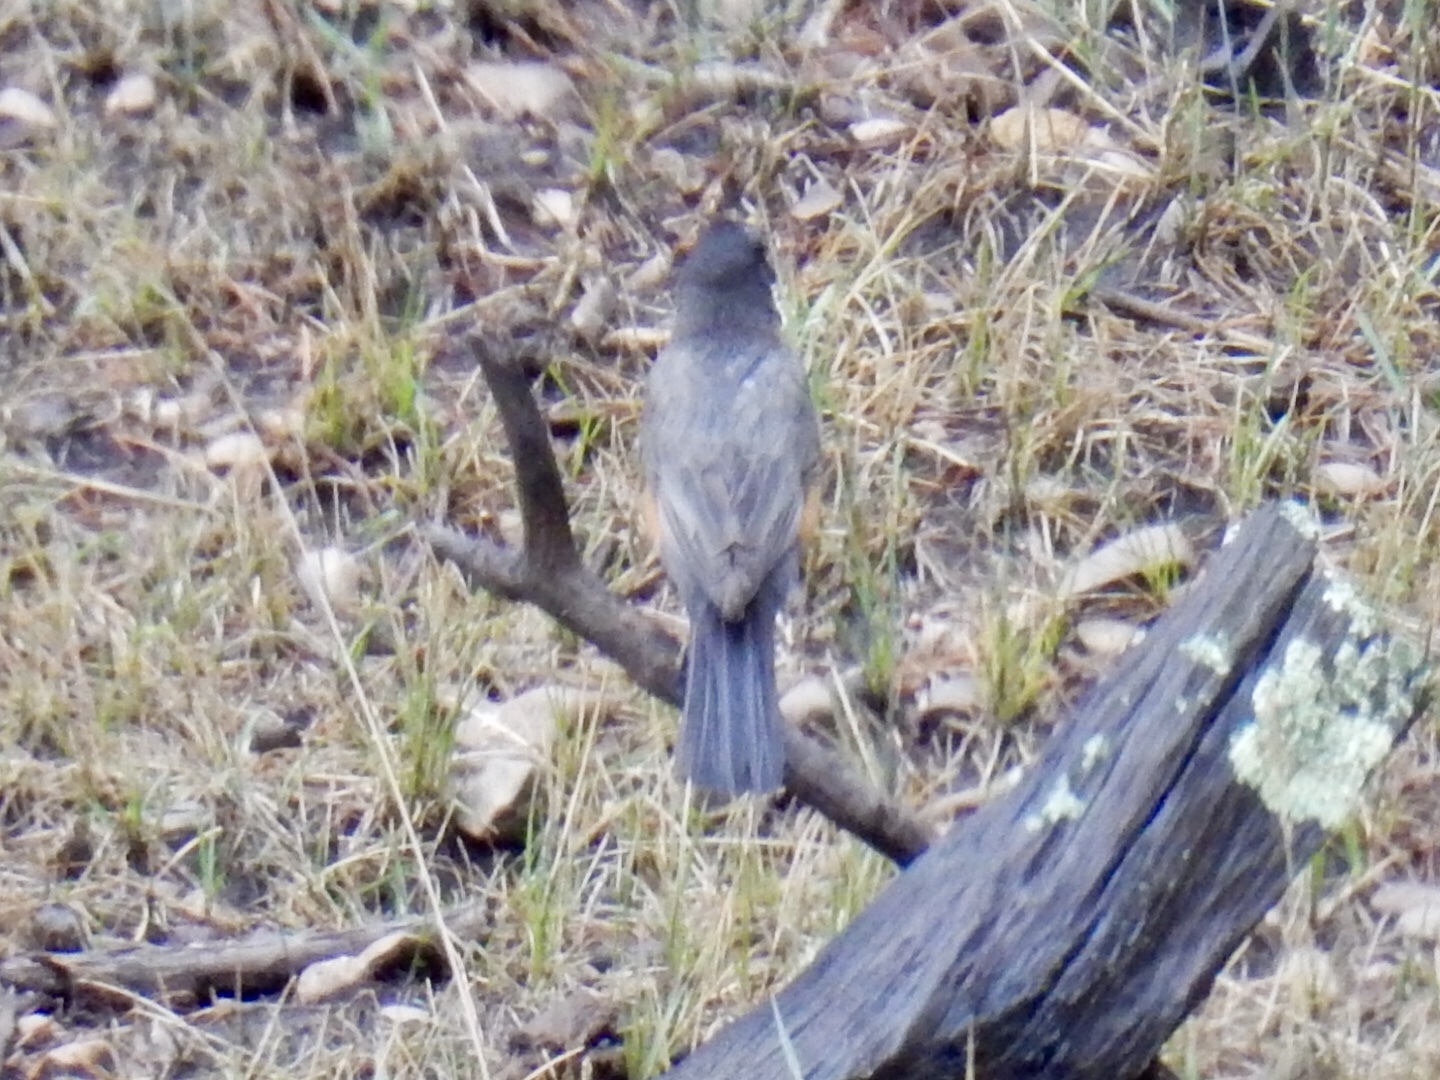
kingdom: Animalia
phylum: Chordata
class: Aves
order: Passeriformes
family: Turdidae
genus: Turdus
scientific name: Turdus migratorius
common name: American robin
